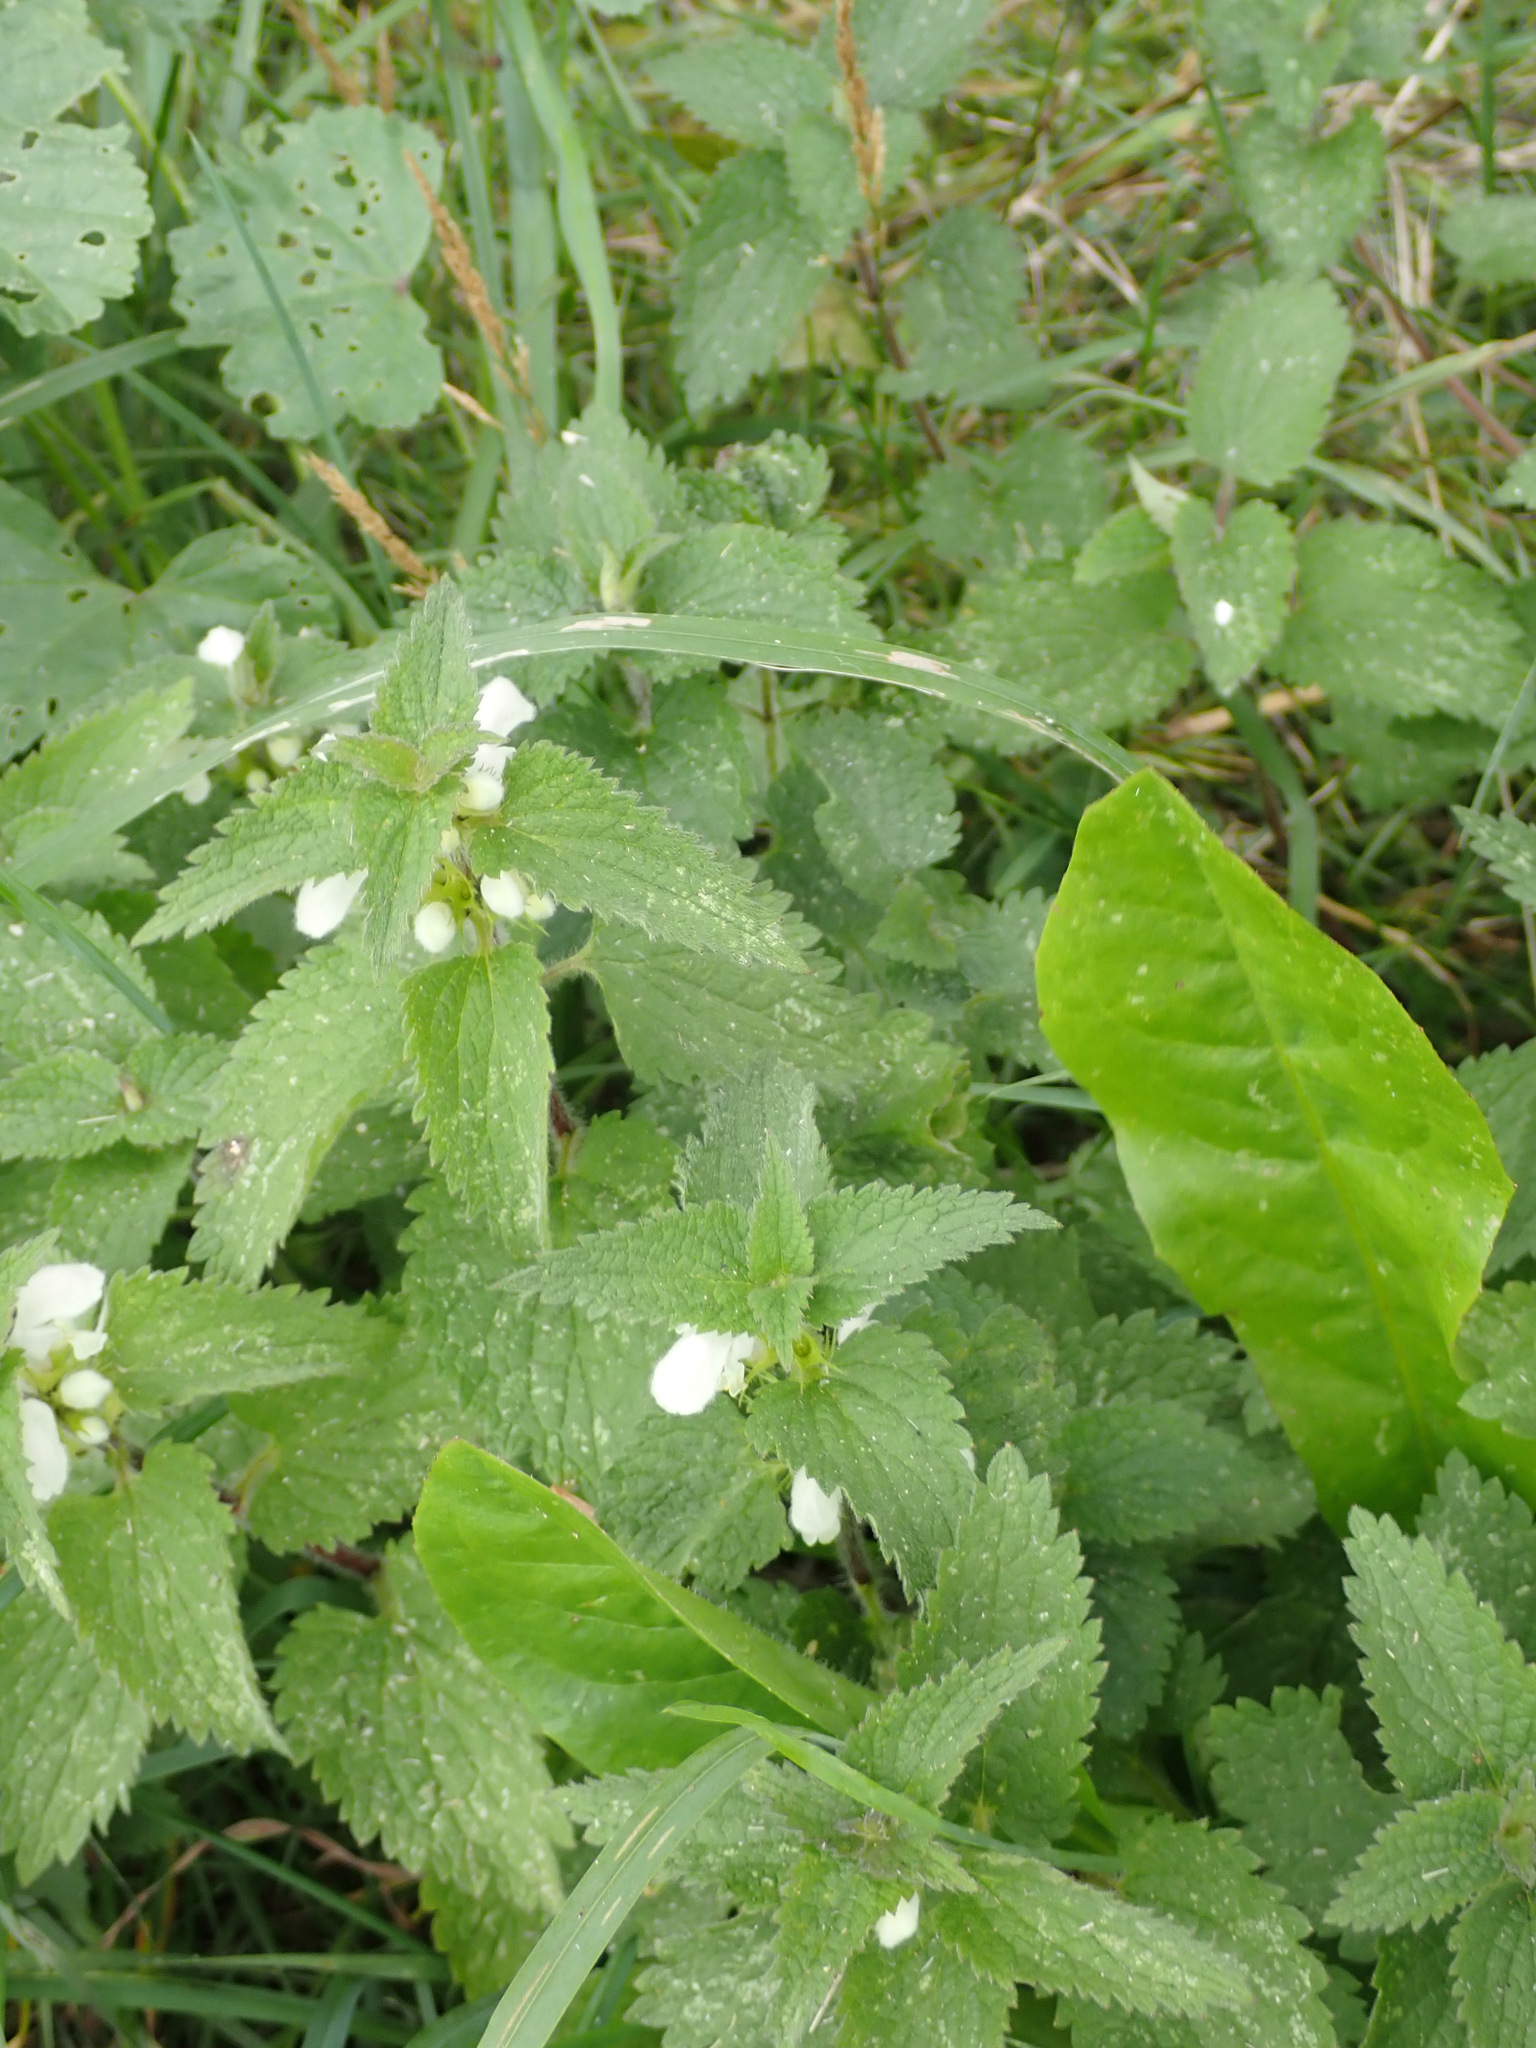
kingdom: Plantae
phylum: Tracheophyta
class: Magnoliopsida
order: Lamiales
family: Lamiaceae
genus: Lamium
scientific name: Lamium album
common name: White dead-nettle
